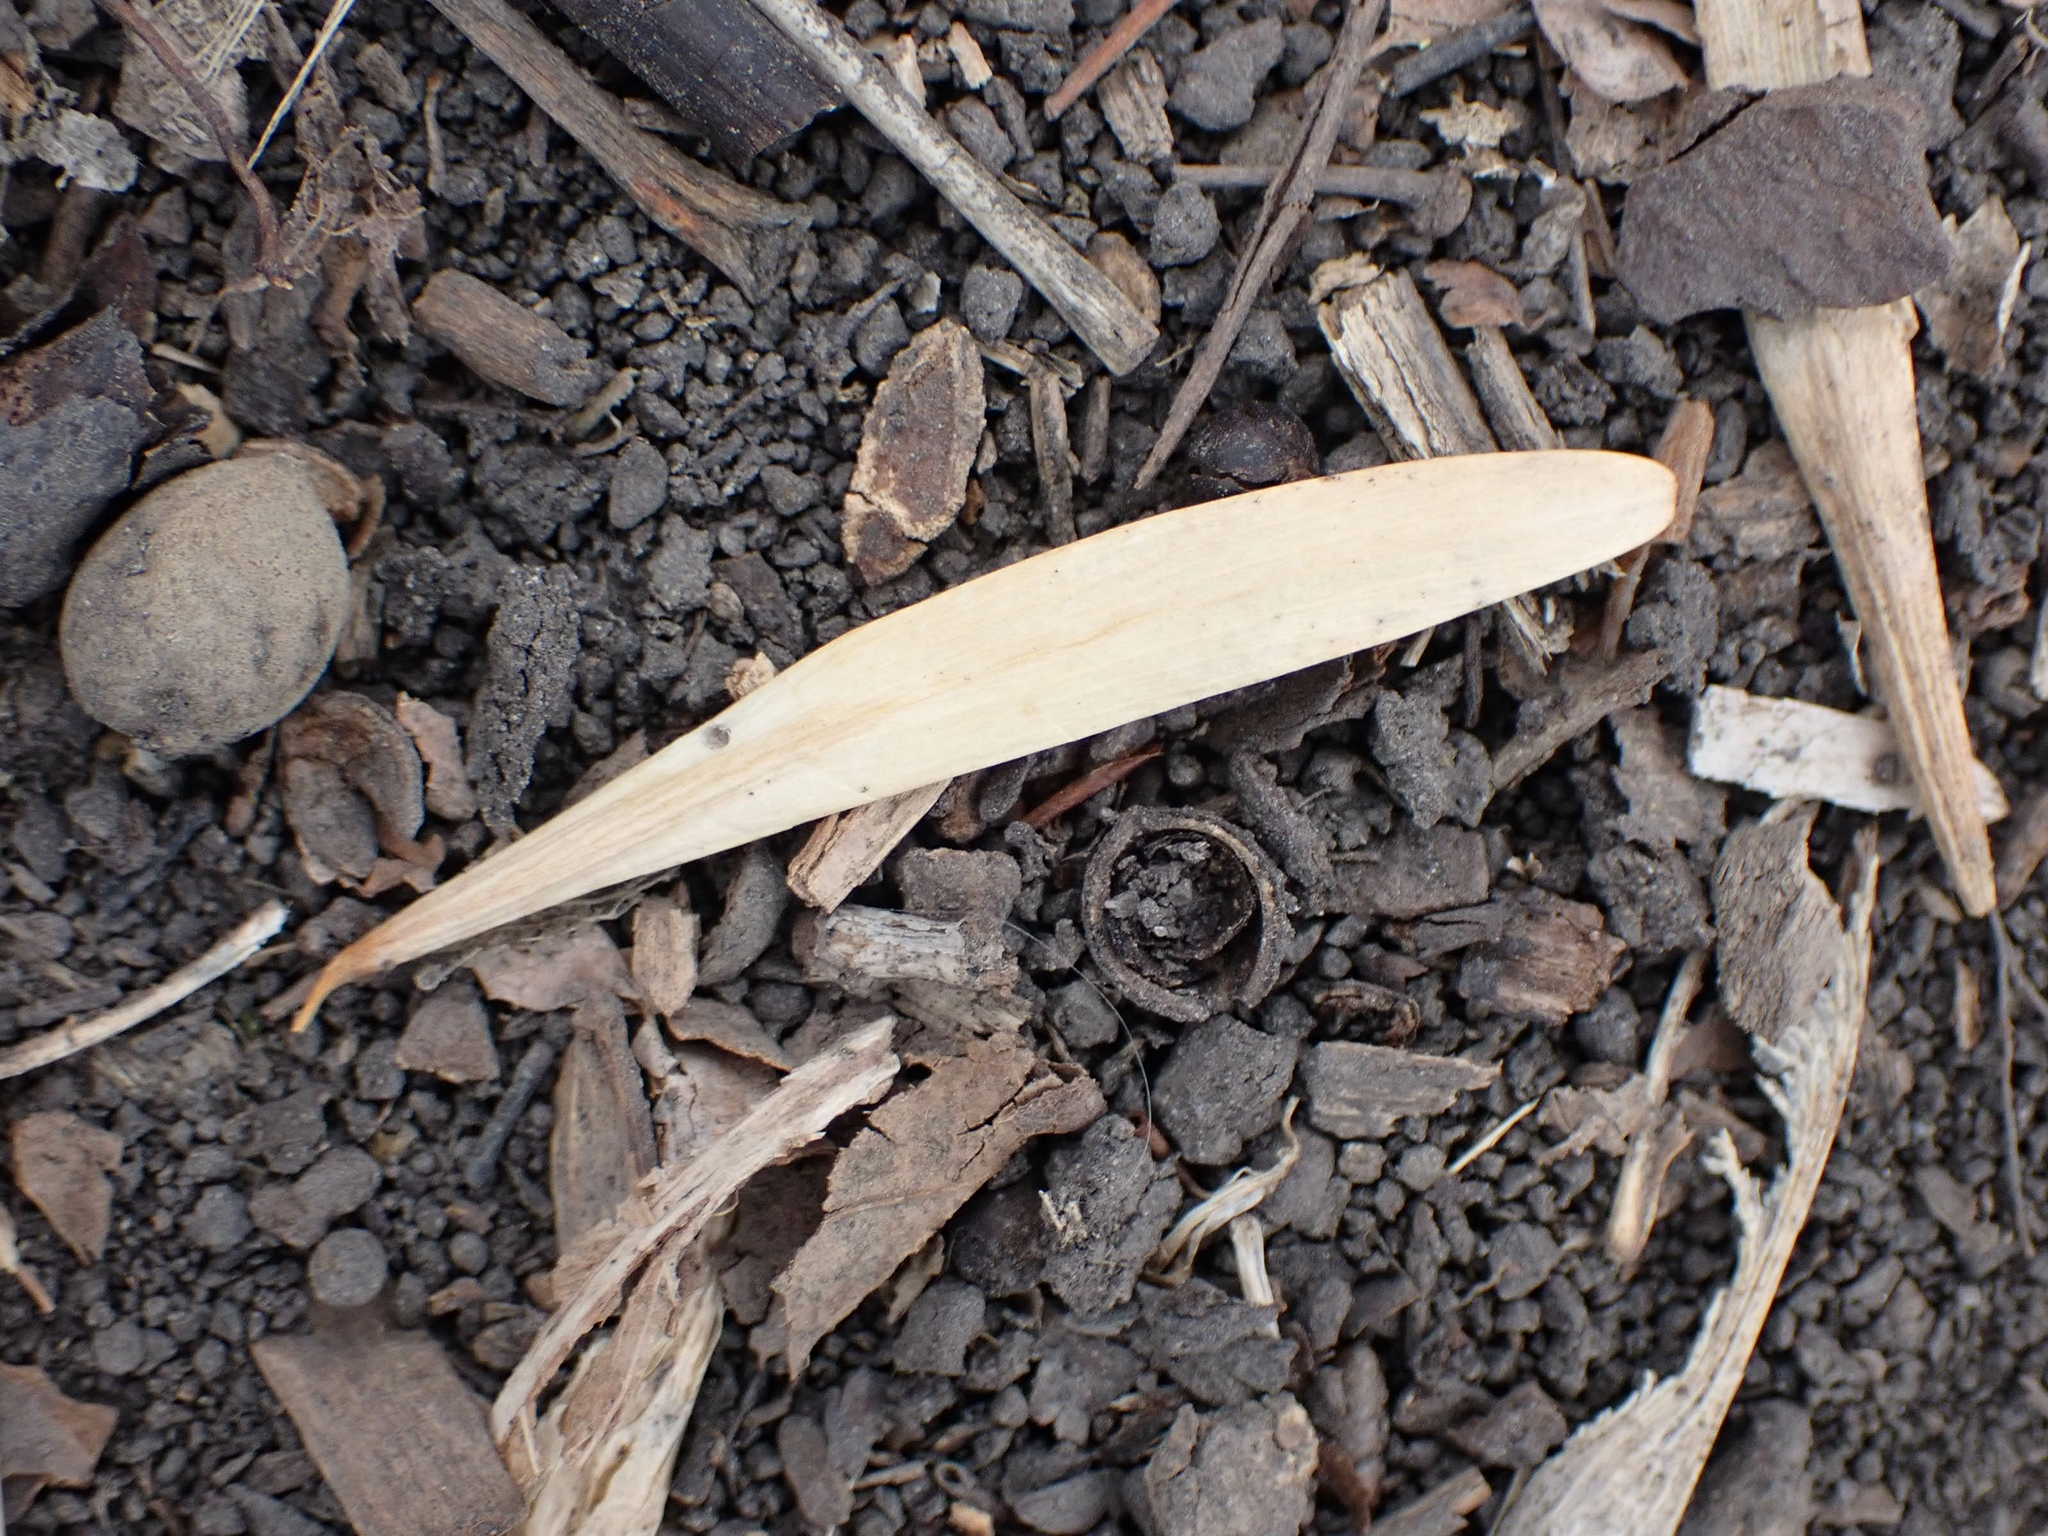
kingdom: Plantae
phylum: Tracheophyta
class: Magnoliopsida
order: Lamiales
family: Oleaceae
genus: Fraxinus
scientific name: Fraxinus pennsylvanica
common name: Green ash
